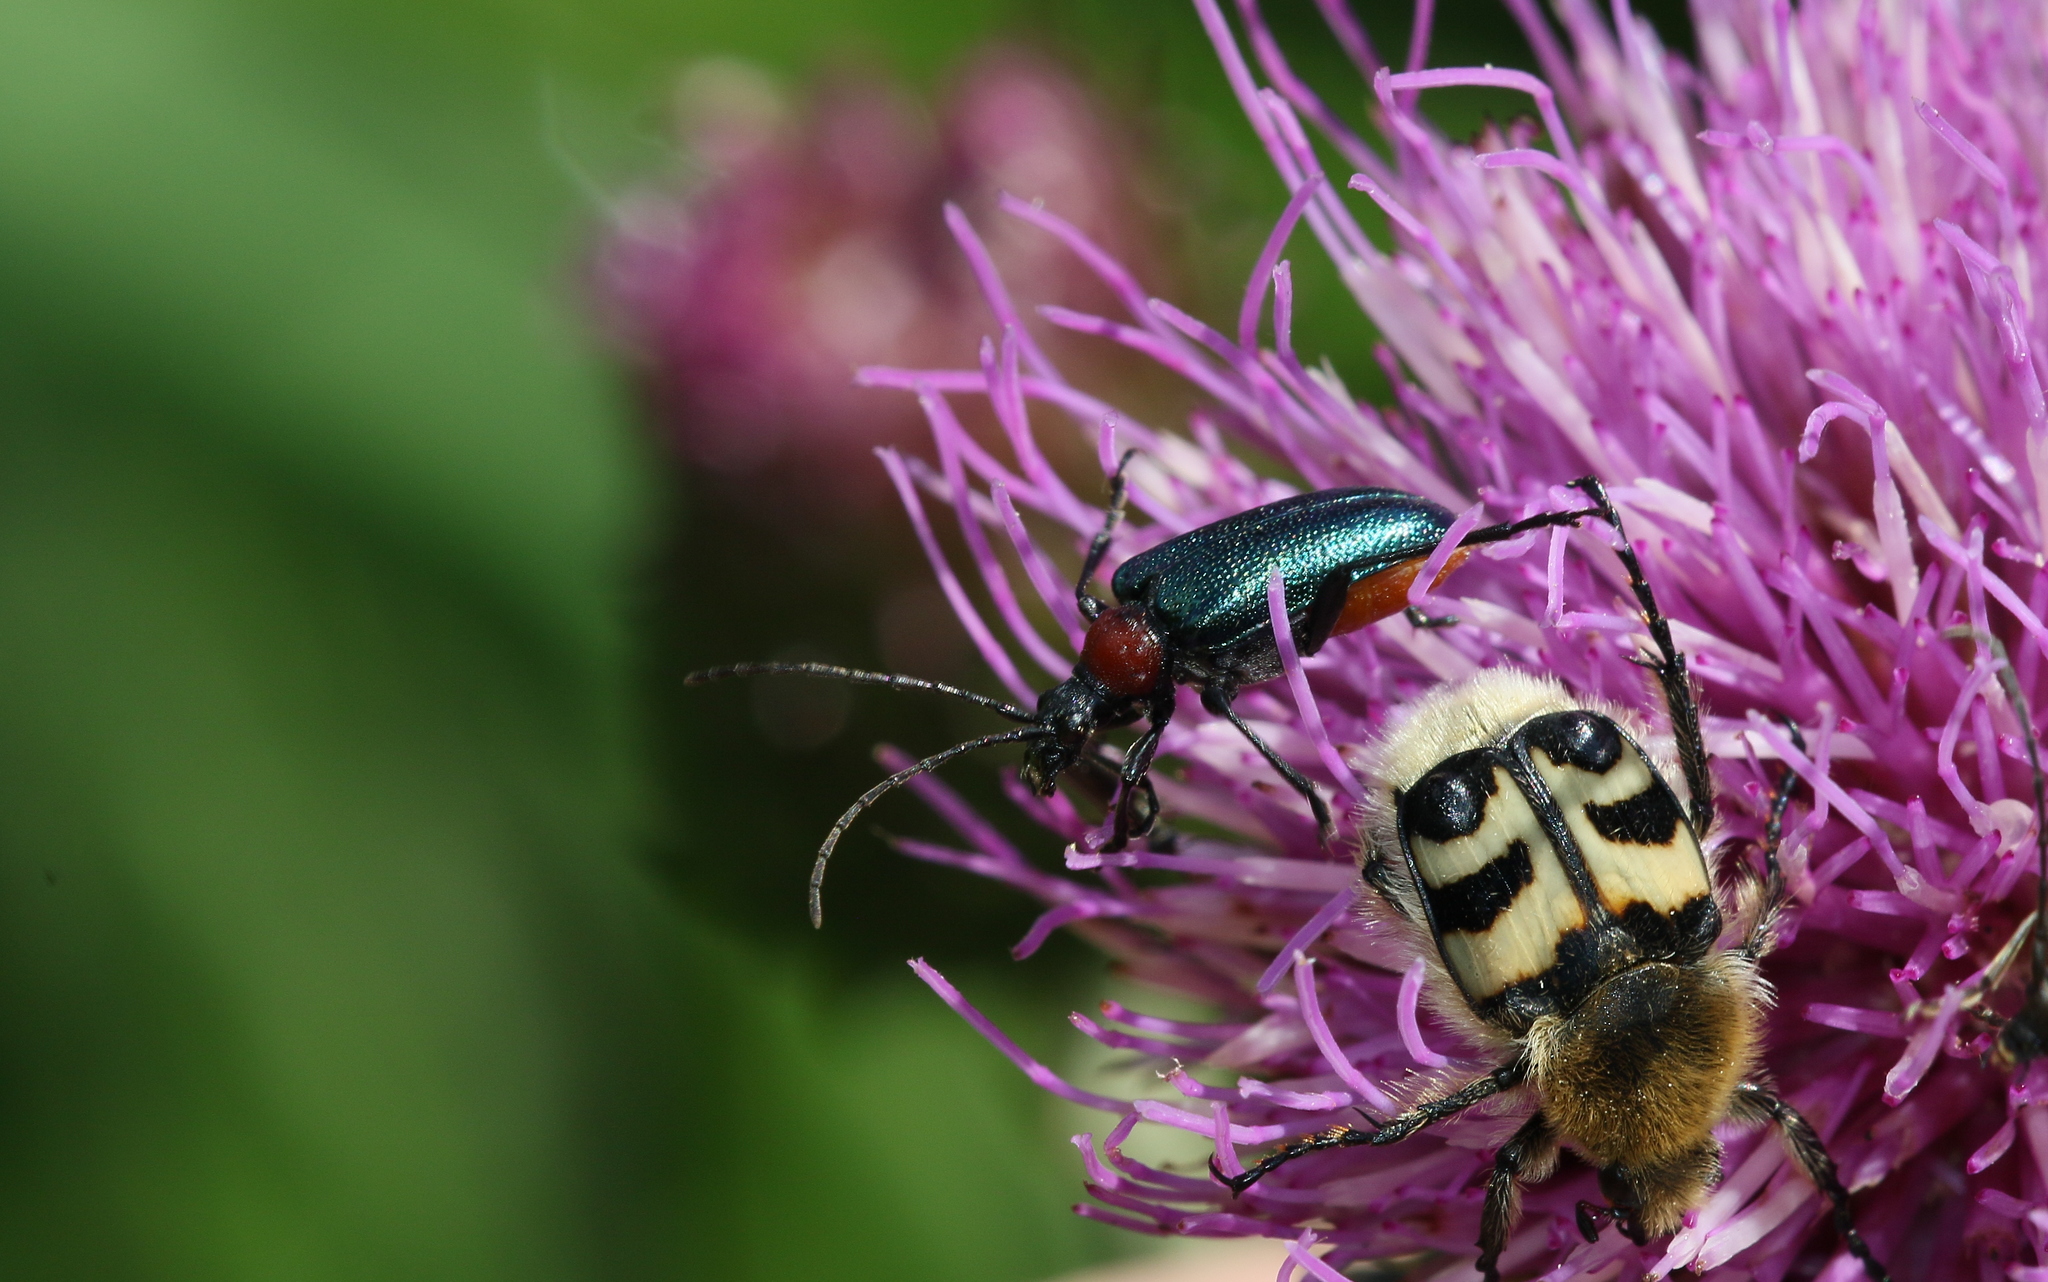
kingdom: Animalia
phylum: Arthropoda
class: Insecta
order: Coleoptera
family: Cerambycidae
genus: Gaurotes
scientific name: Gaurotes virginea
